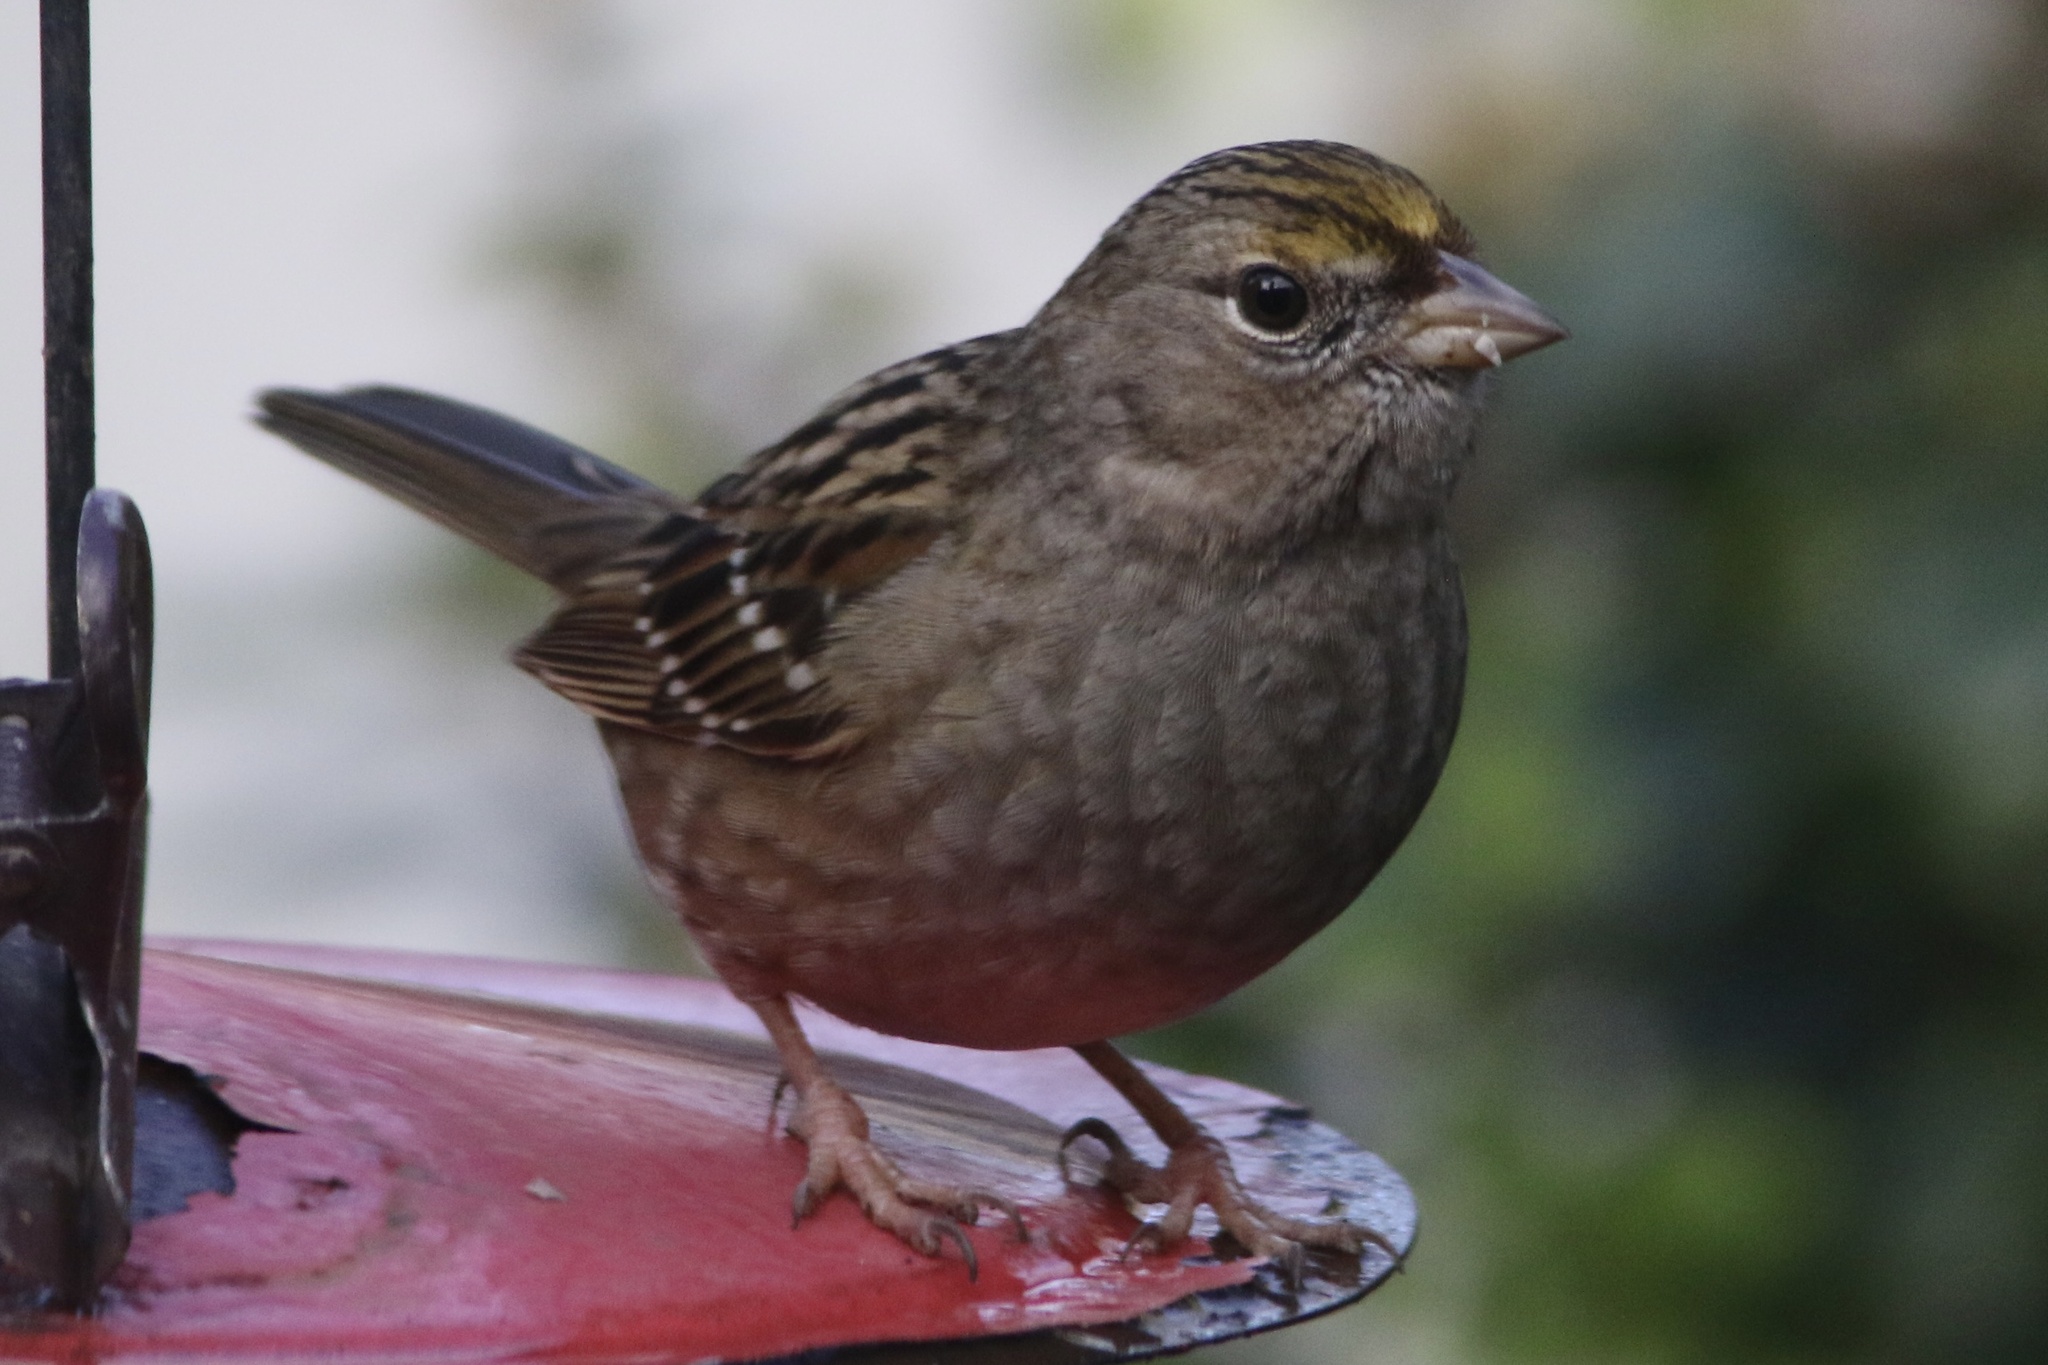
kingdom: Animalia
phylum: Chordata
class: Aves
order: Passeriformes
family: Passerellidae
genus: Zonotrichia
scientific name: Zonotrichia atricapilla
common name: Golden-crowned sparrow
